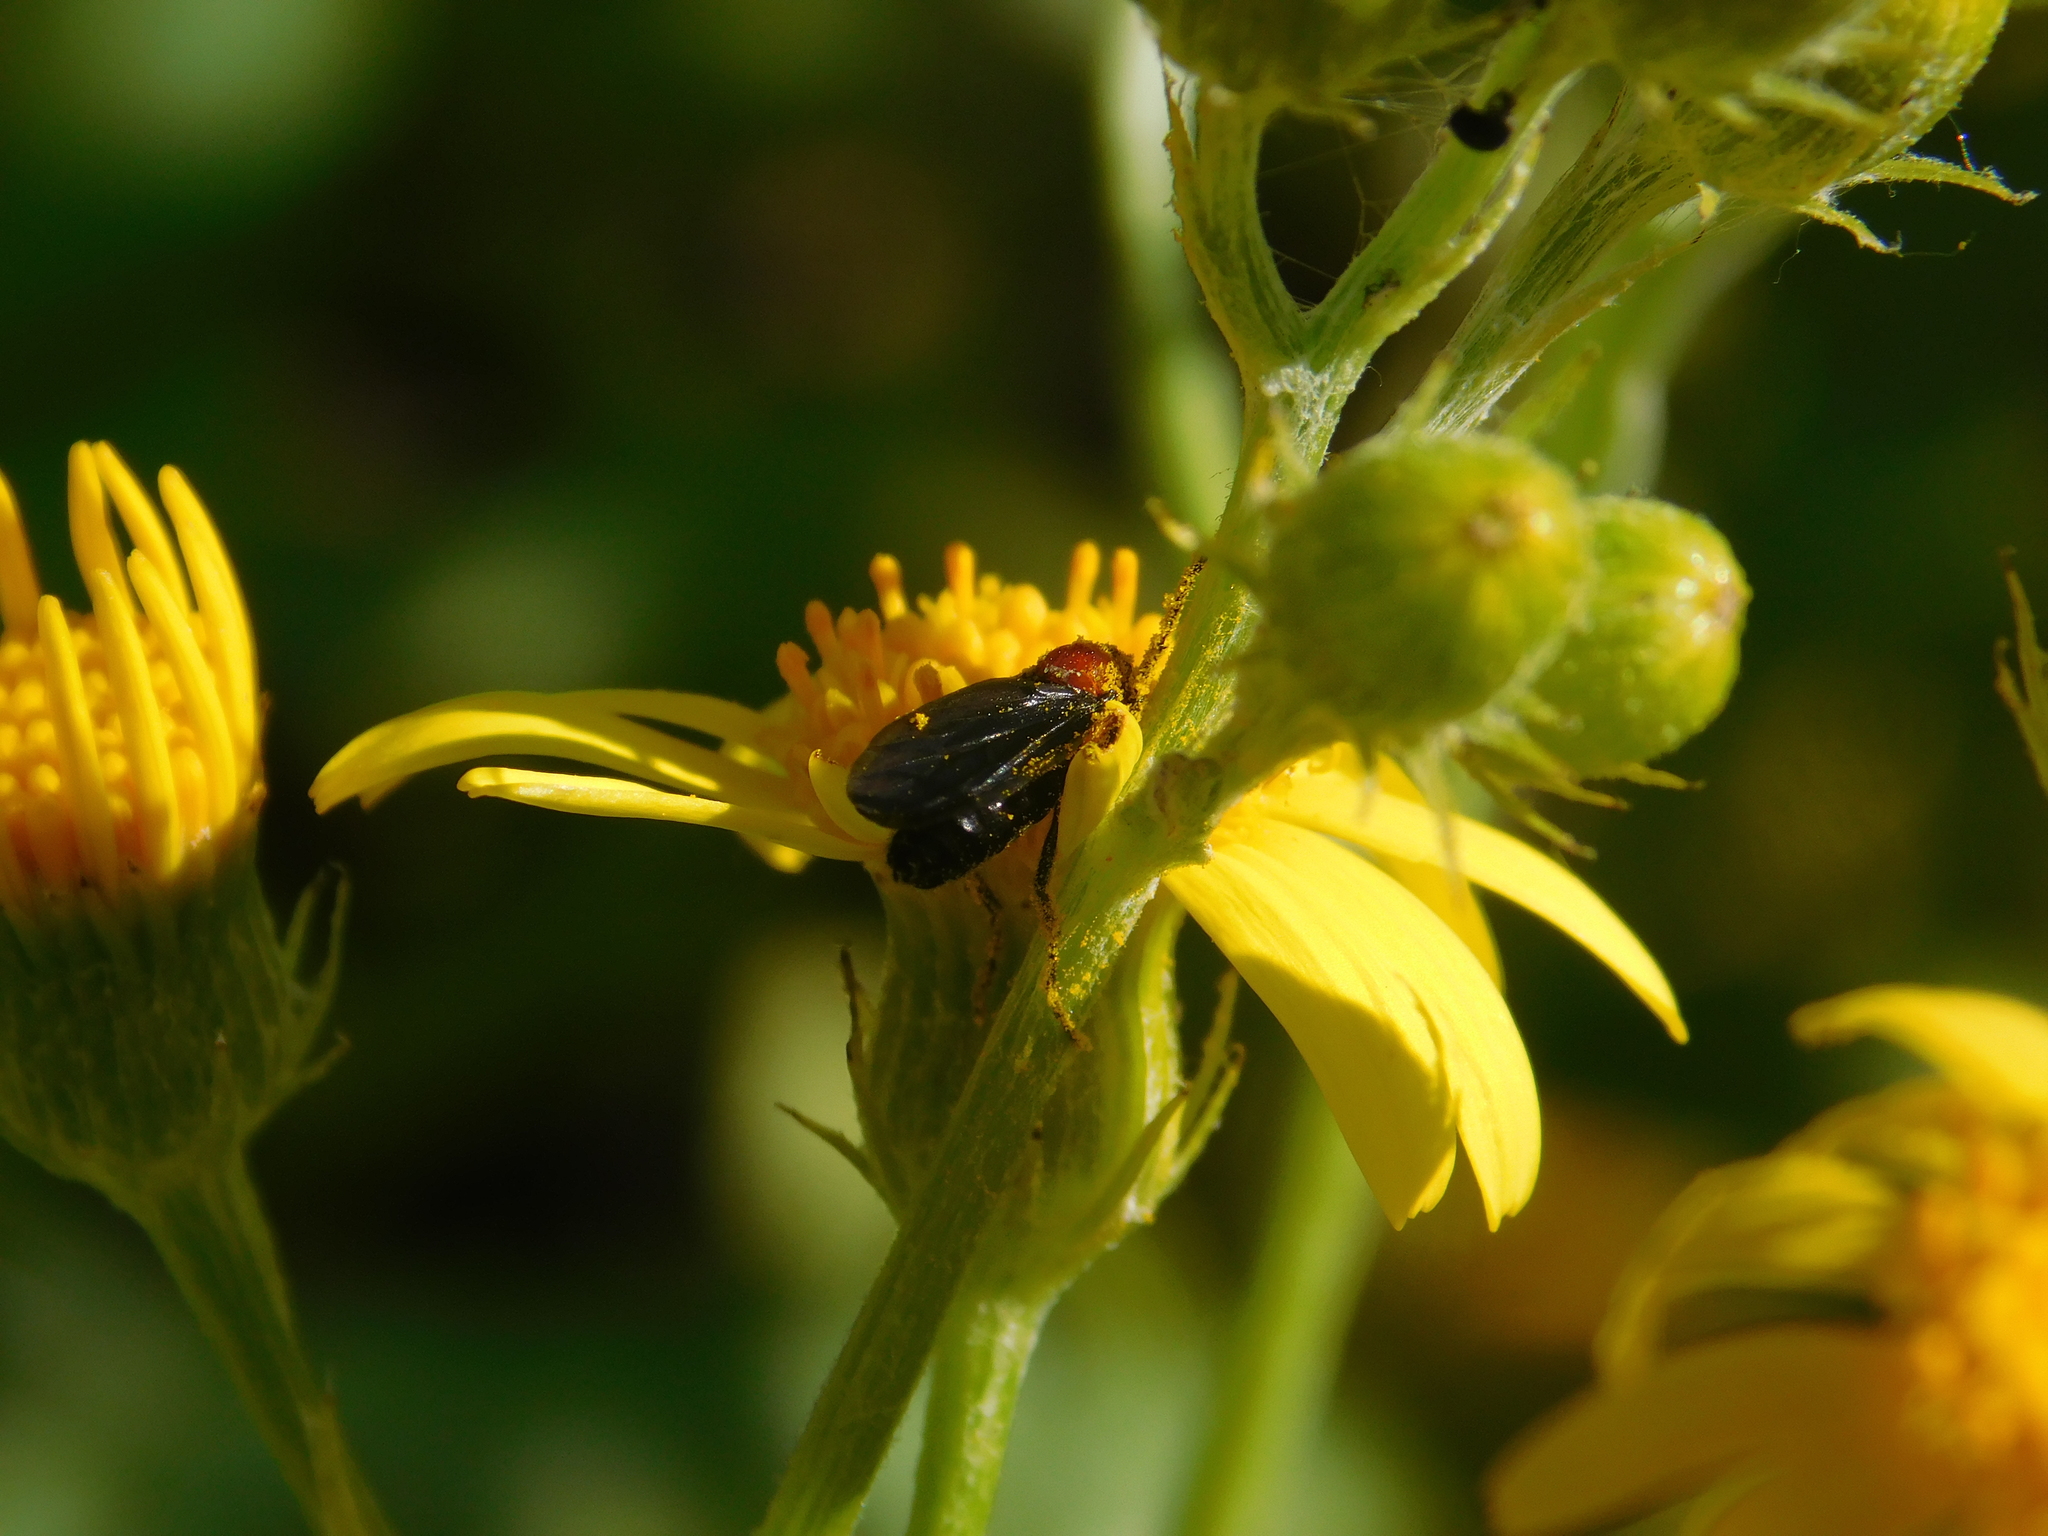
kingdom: Animalia
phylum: Arthropoda
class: Insecta
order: Diptera
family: Bibionidae
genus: Dilophus
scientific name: Dilophus pectoralis
